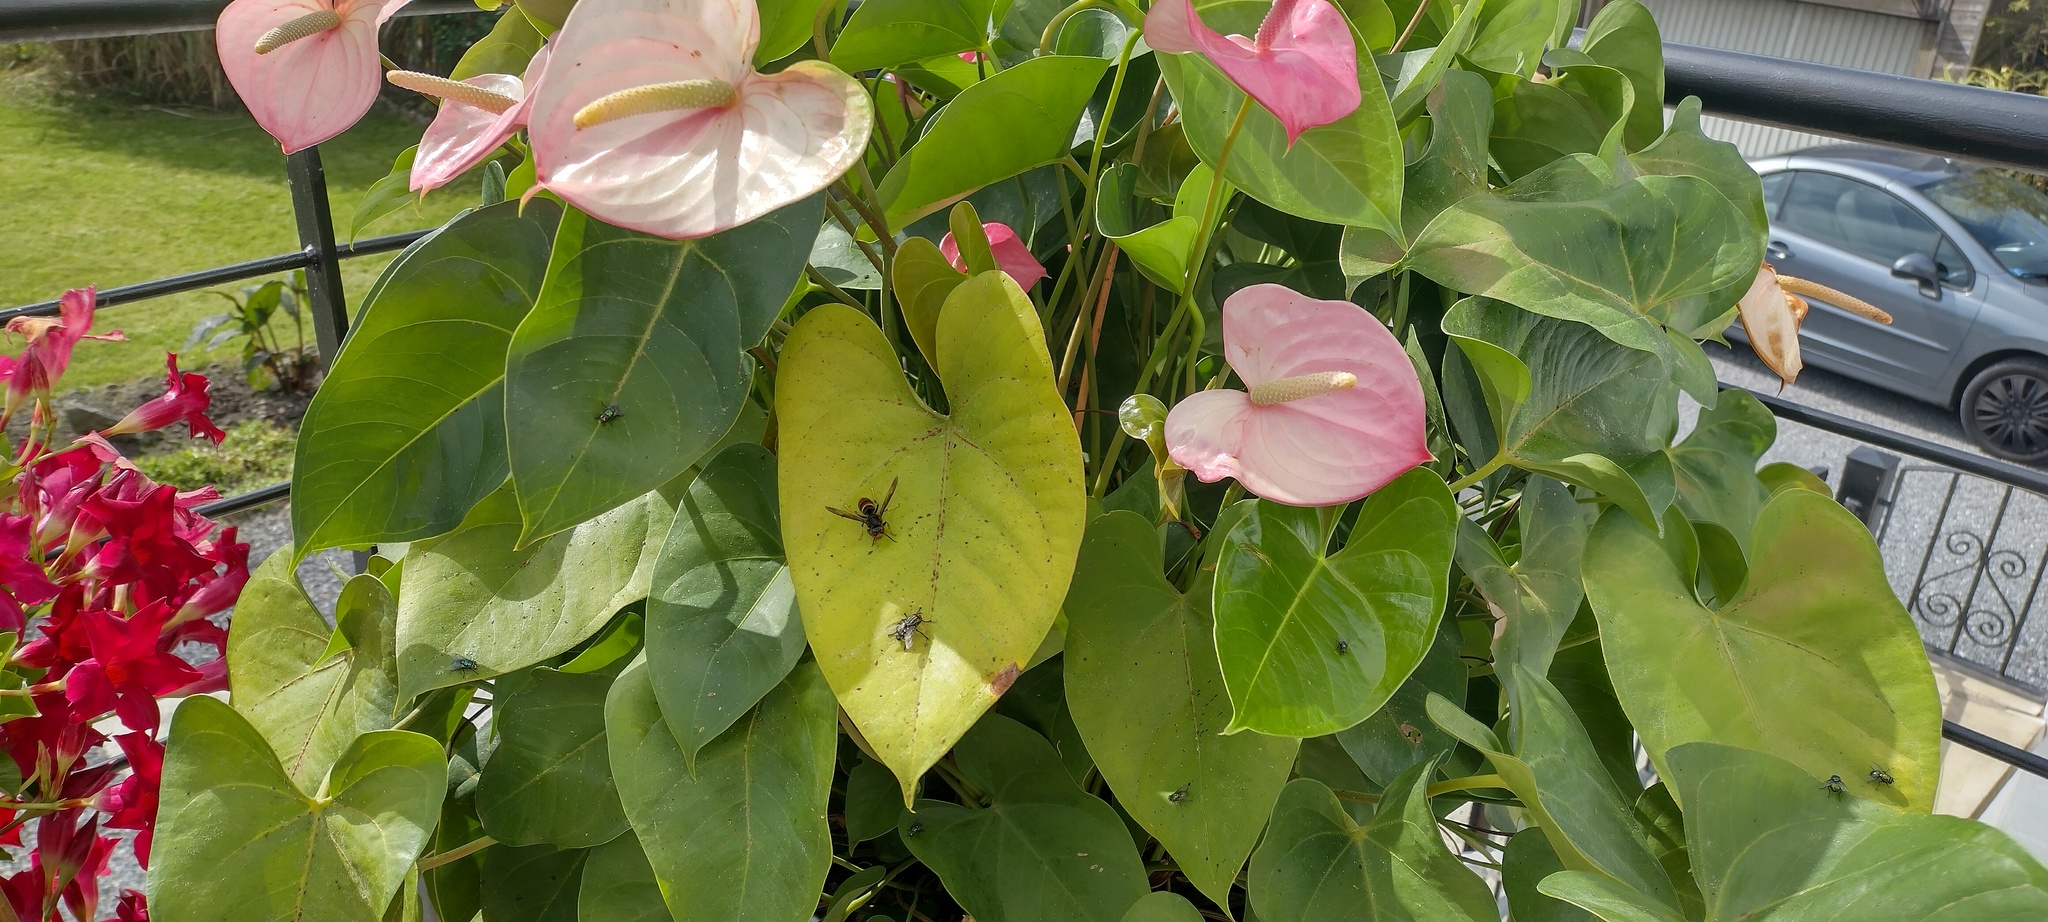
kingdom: Animalia
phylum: Arthropoda
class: Insecta
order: Hymenoptera
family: Vespidae
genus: Vespa
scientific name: Vespa velutina
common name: Asian hornet
